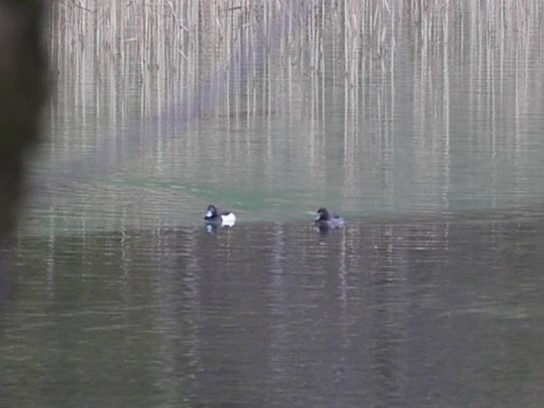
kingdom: Animalia
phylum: Chordata
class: Aves
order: Anseriformes
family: Anatidae
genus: Aythya
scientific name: Aythya fuligula
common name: Tufted duck
